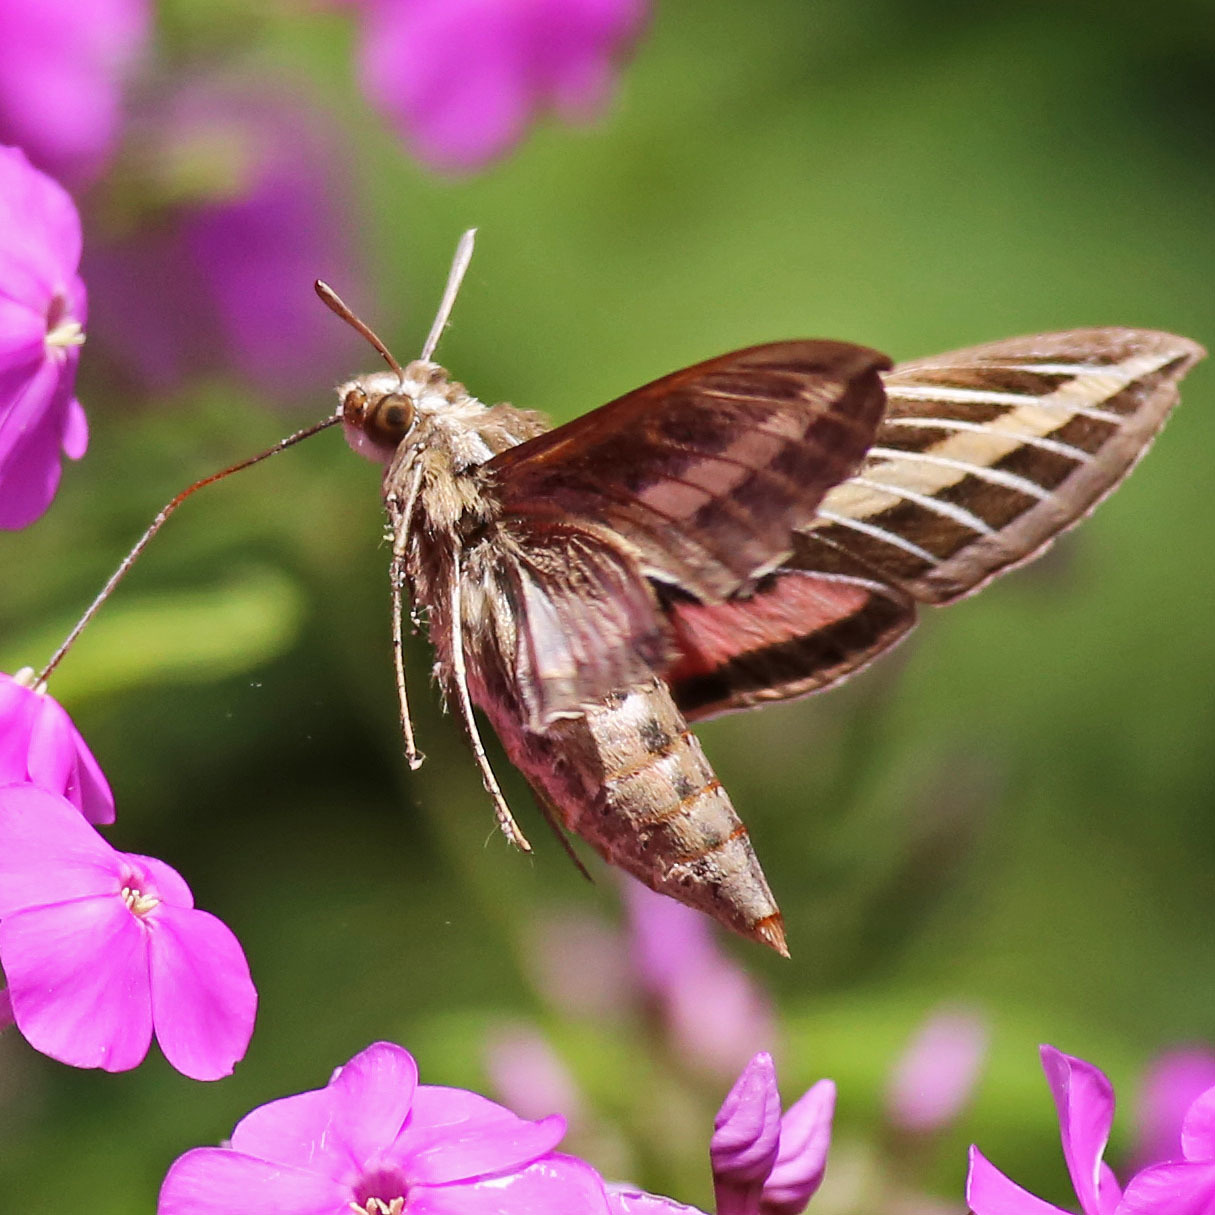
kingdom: Animalia
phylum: Arthropoda
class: Insecta
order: Lepidoptera
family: Sphingidae
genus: Hyles
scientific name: Hyles lineata
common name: White-lined sphinx
